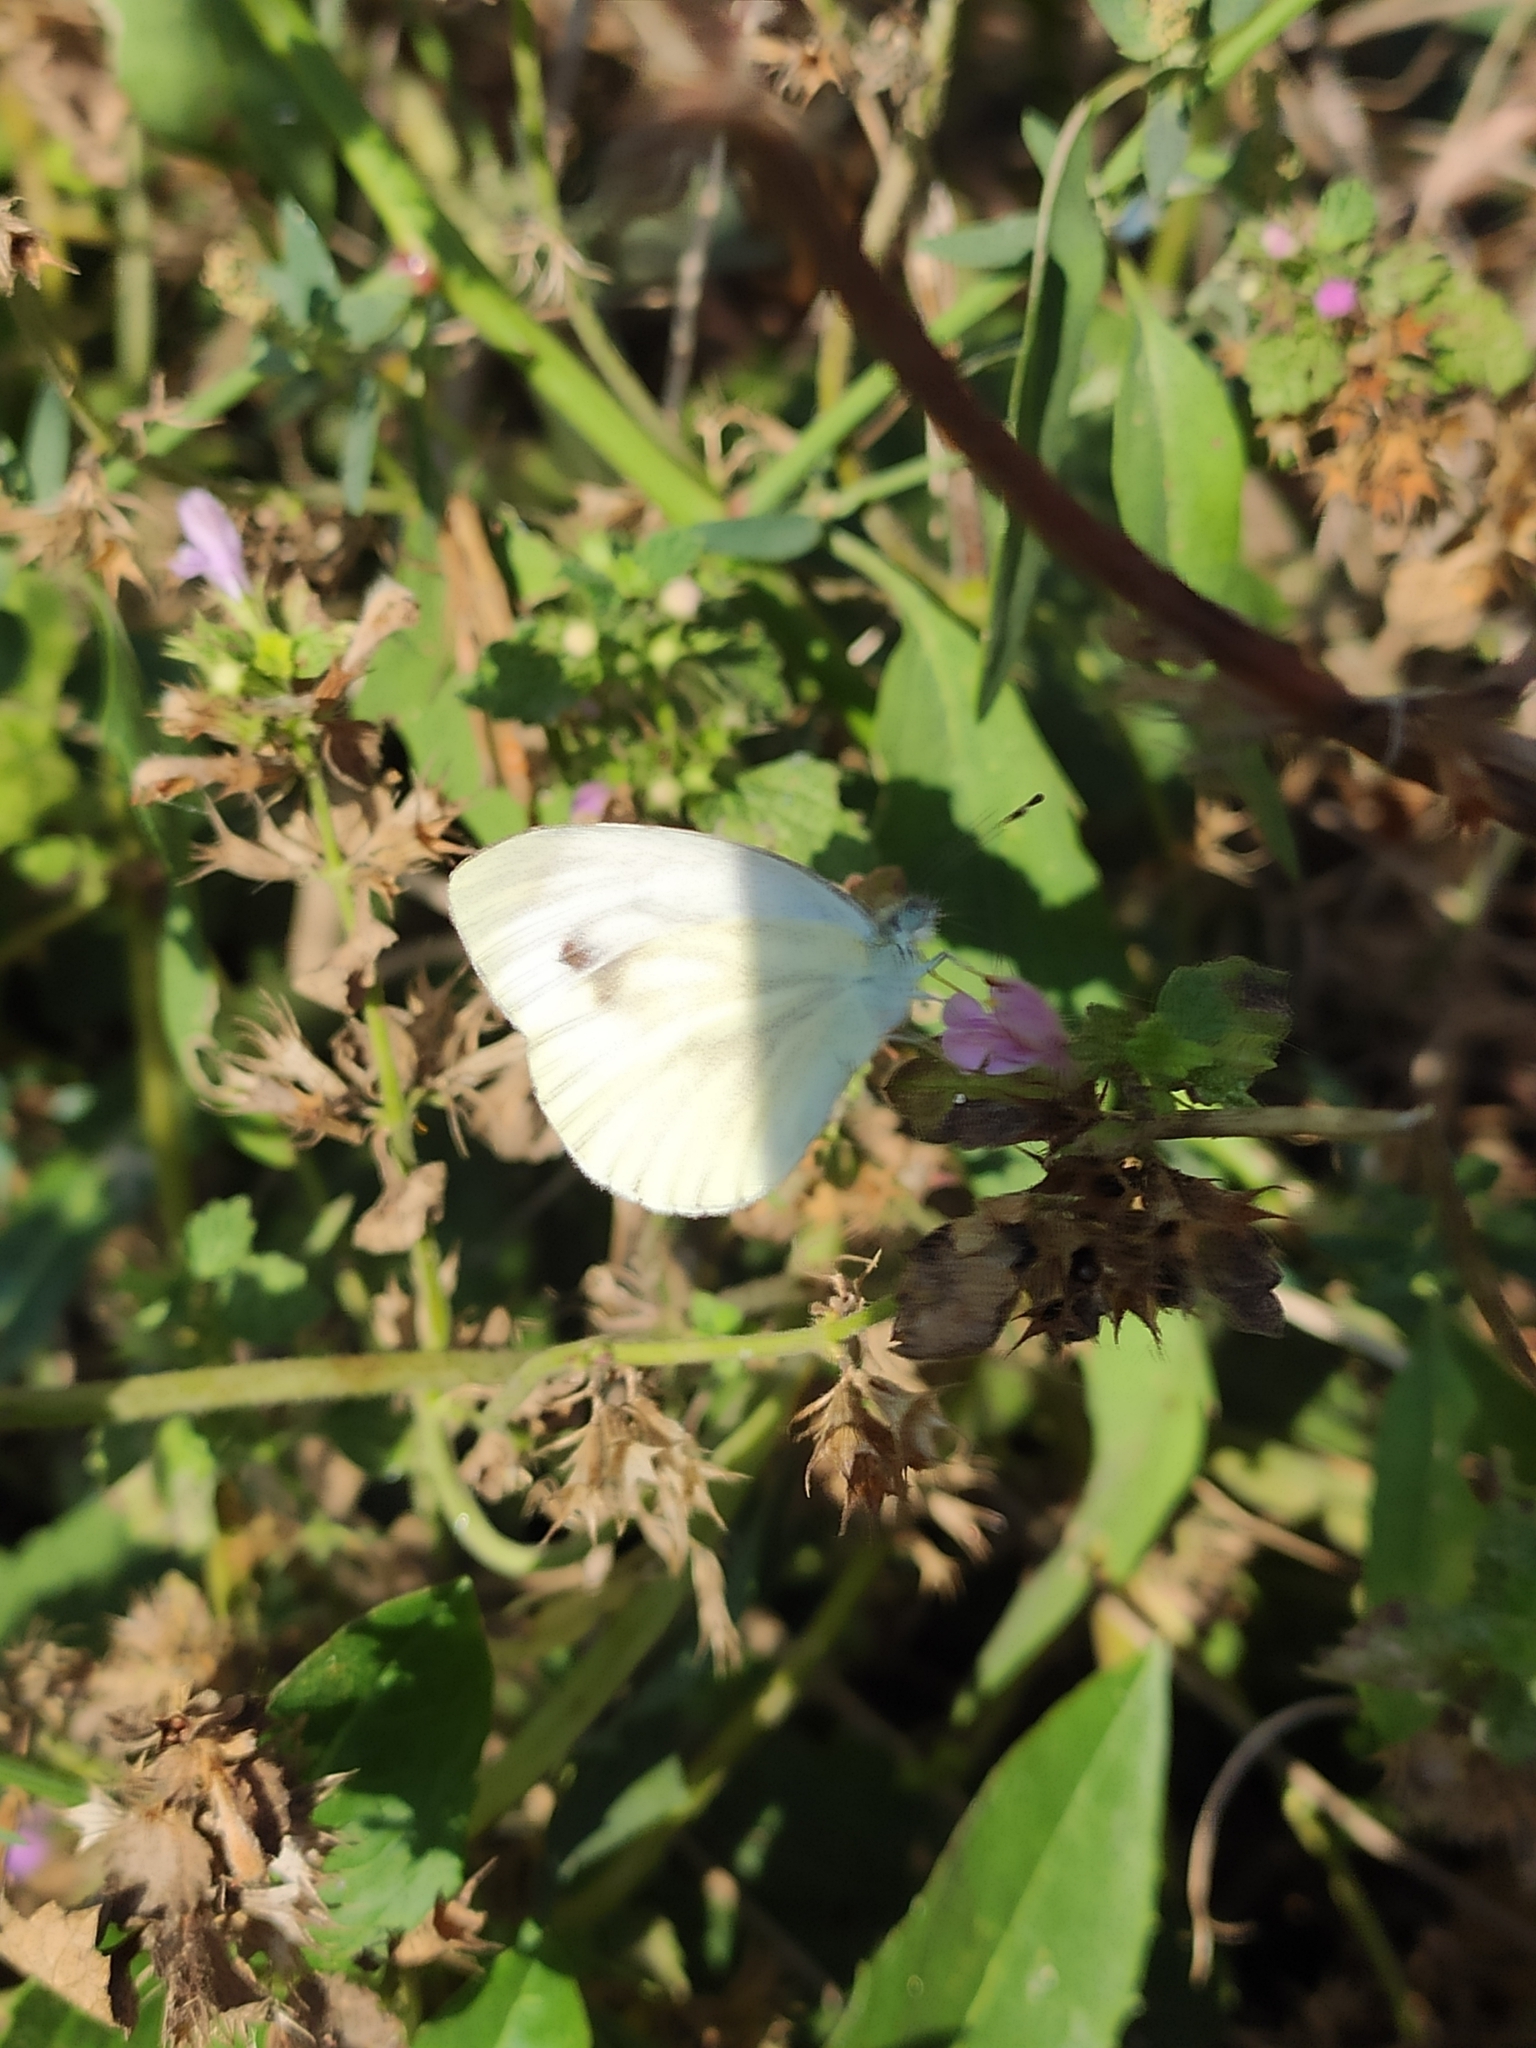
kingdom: Animalia
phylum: Arthropoda
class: Insecta
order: Lepidoptera
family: Pieridae
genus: Pieris
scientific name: Pieris napi
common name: Green-veined white
